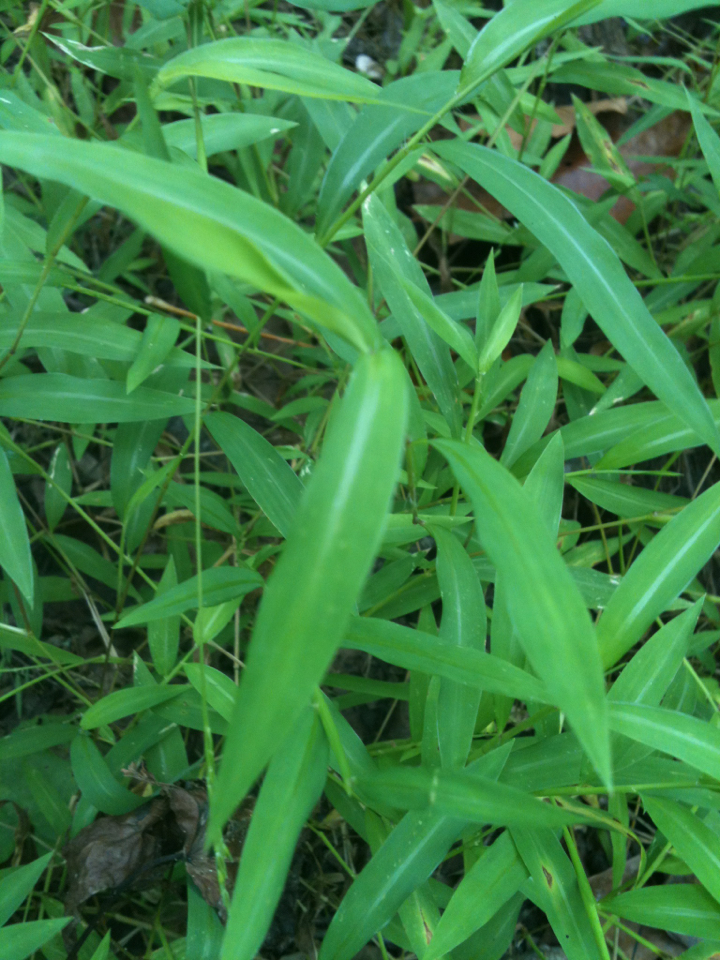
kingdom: Plantae
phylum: Tracheophyta
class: Liliopsida
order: Poales
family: Poaceae
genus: Microstegium
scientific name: Microstegium vimineum
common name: Japanese stiltgrass
